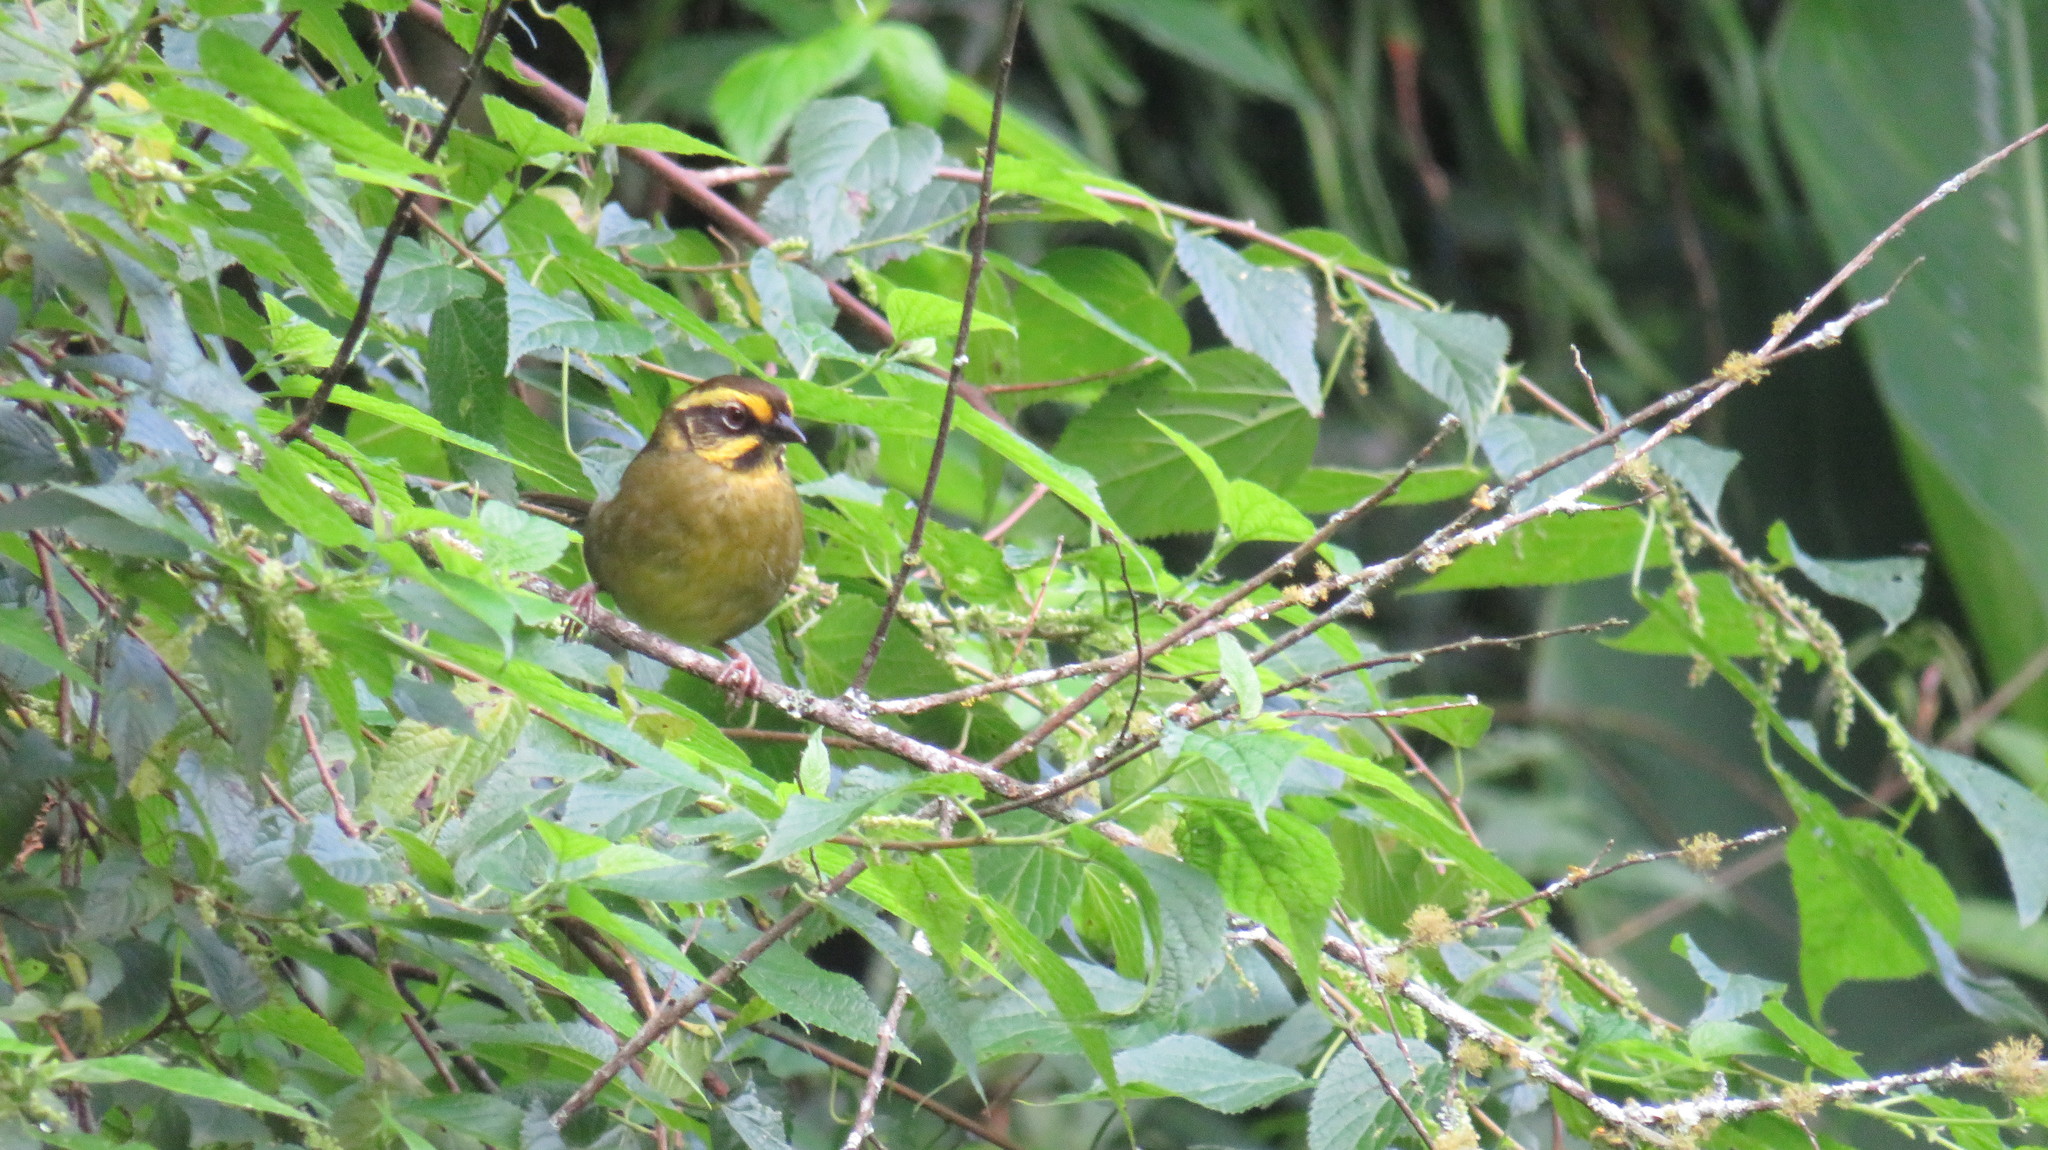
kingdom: Animalia
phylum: Chordata
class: Aves
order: Passeriformes
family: Passerellidae
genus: Atlapetes
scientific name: Atlapetes citrinellus
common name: Yellow-striped brushfinch
